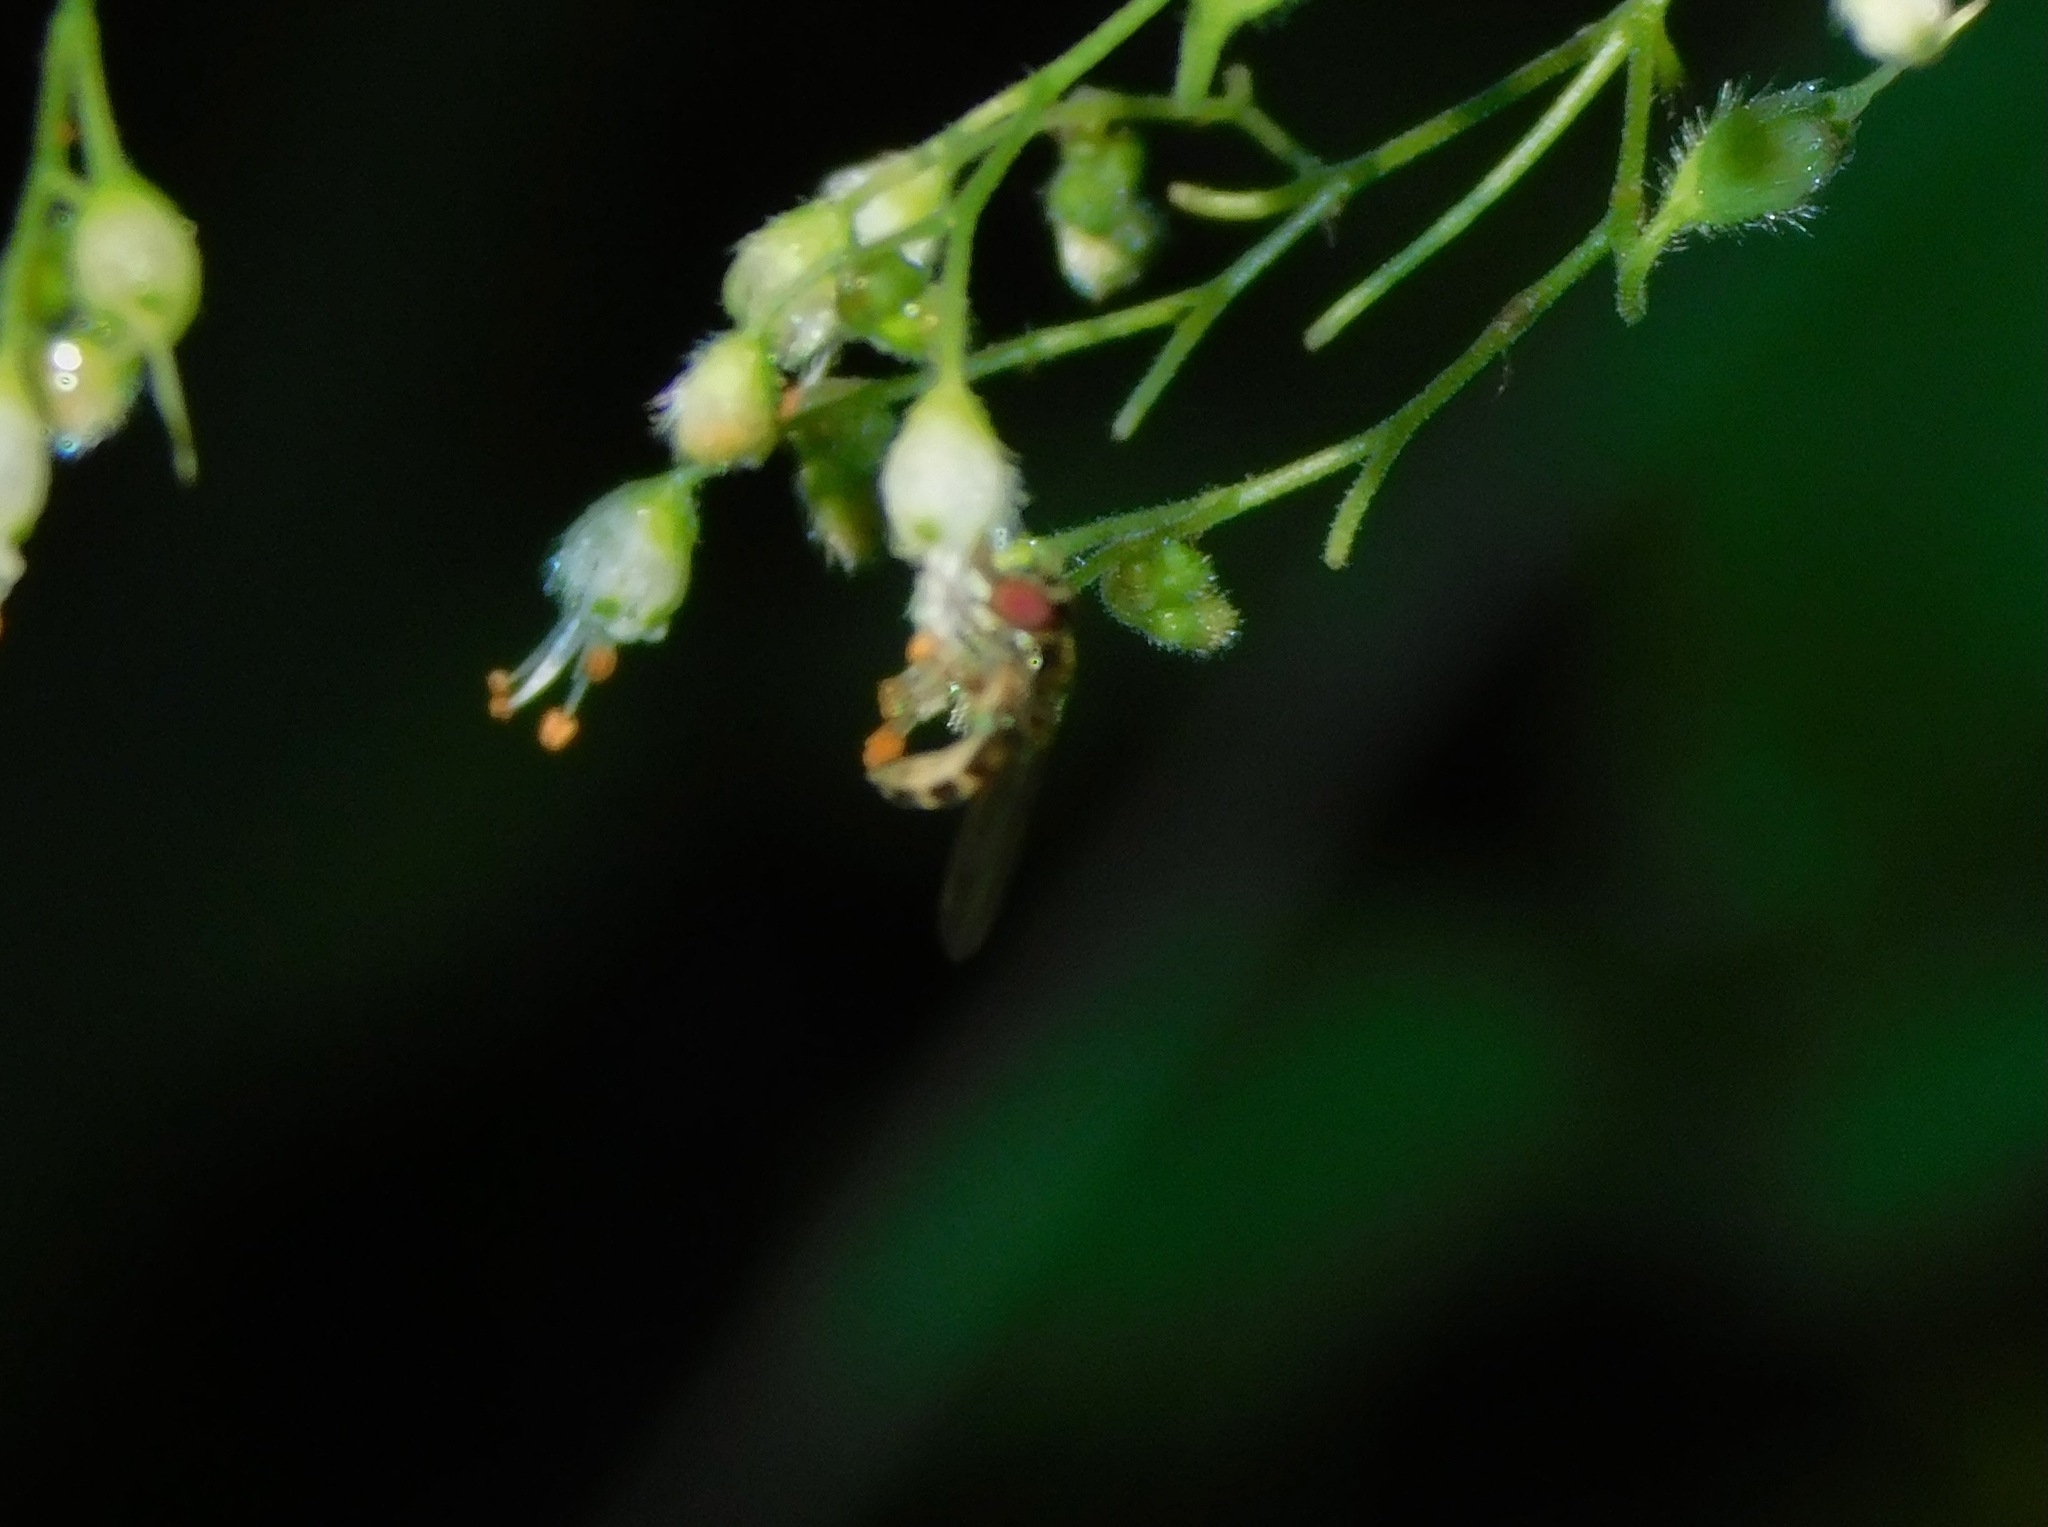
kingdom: Plantae
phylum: Tracheophyta
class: Magnoliopsida
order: Saxifragales
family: Saxifragaceae
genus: Heuchera
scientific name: Heuchera villosa
